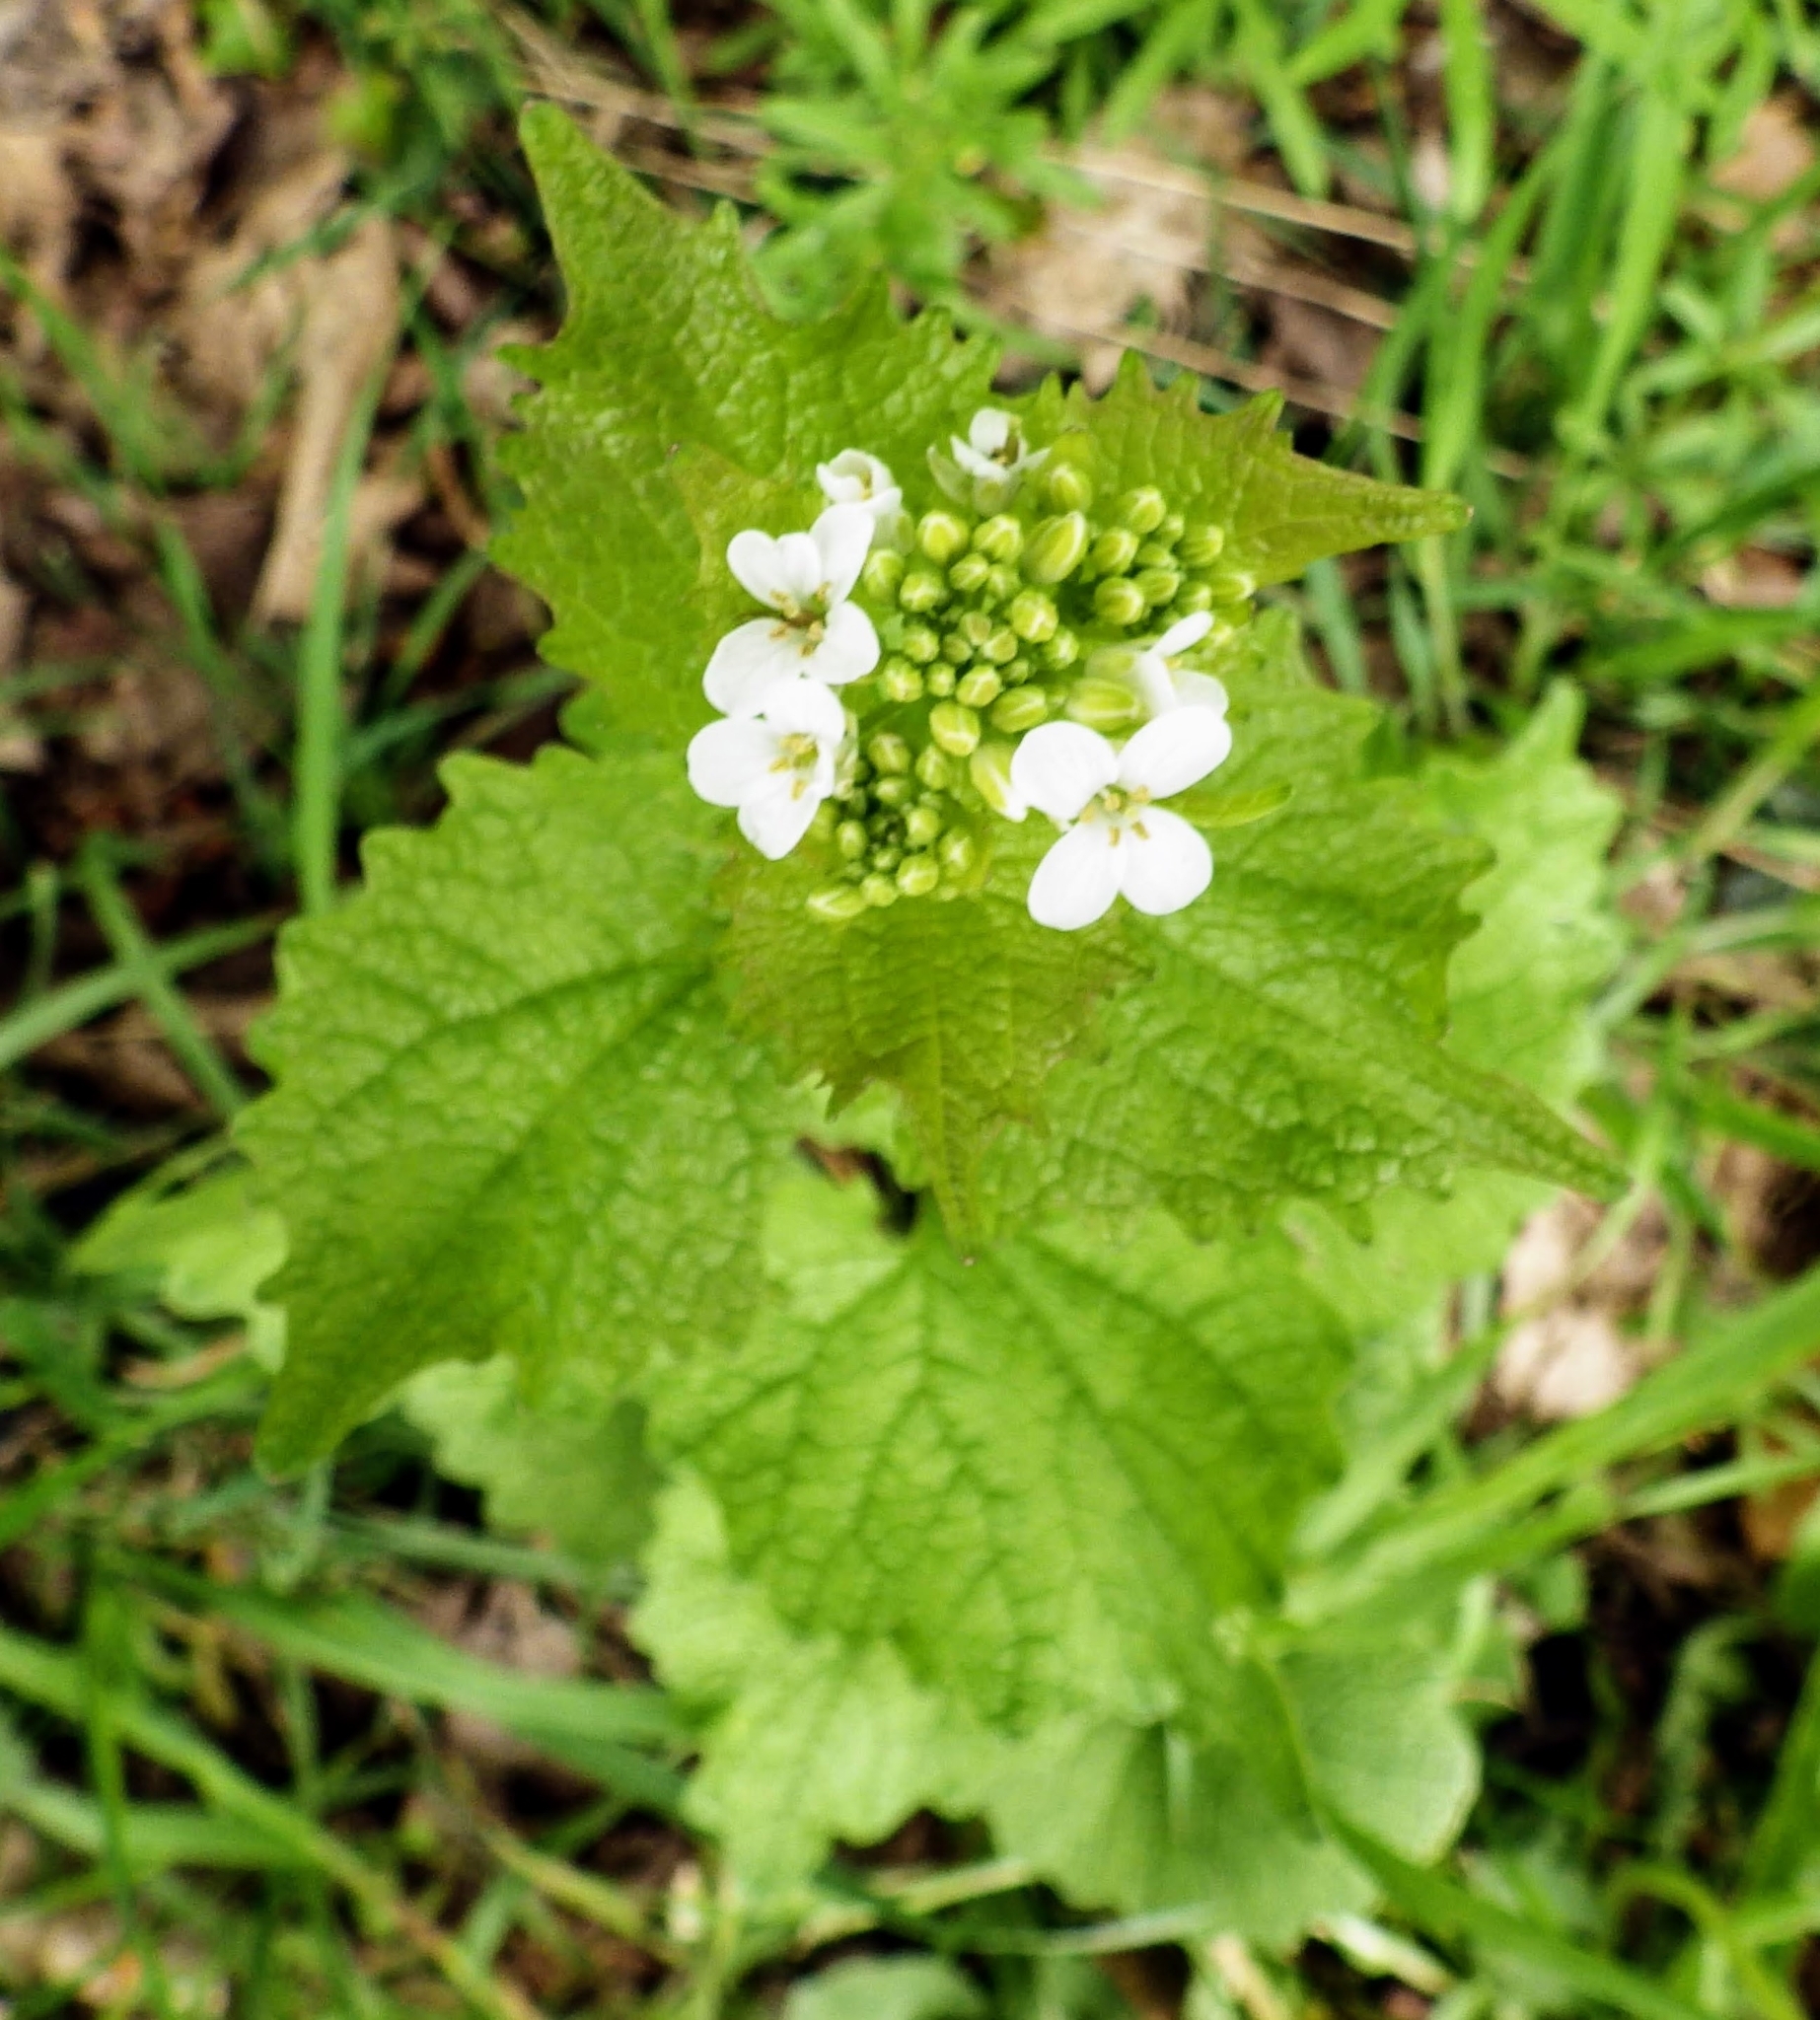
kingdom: Plantae
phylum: Tracheophyta
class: Magnoliopsida
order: Brassicales
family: Brassicaceae
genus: Alliaria
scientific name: Alliaria petiolata
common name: Garlic mustard
